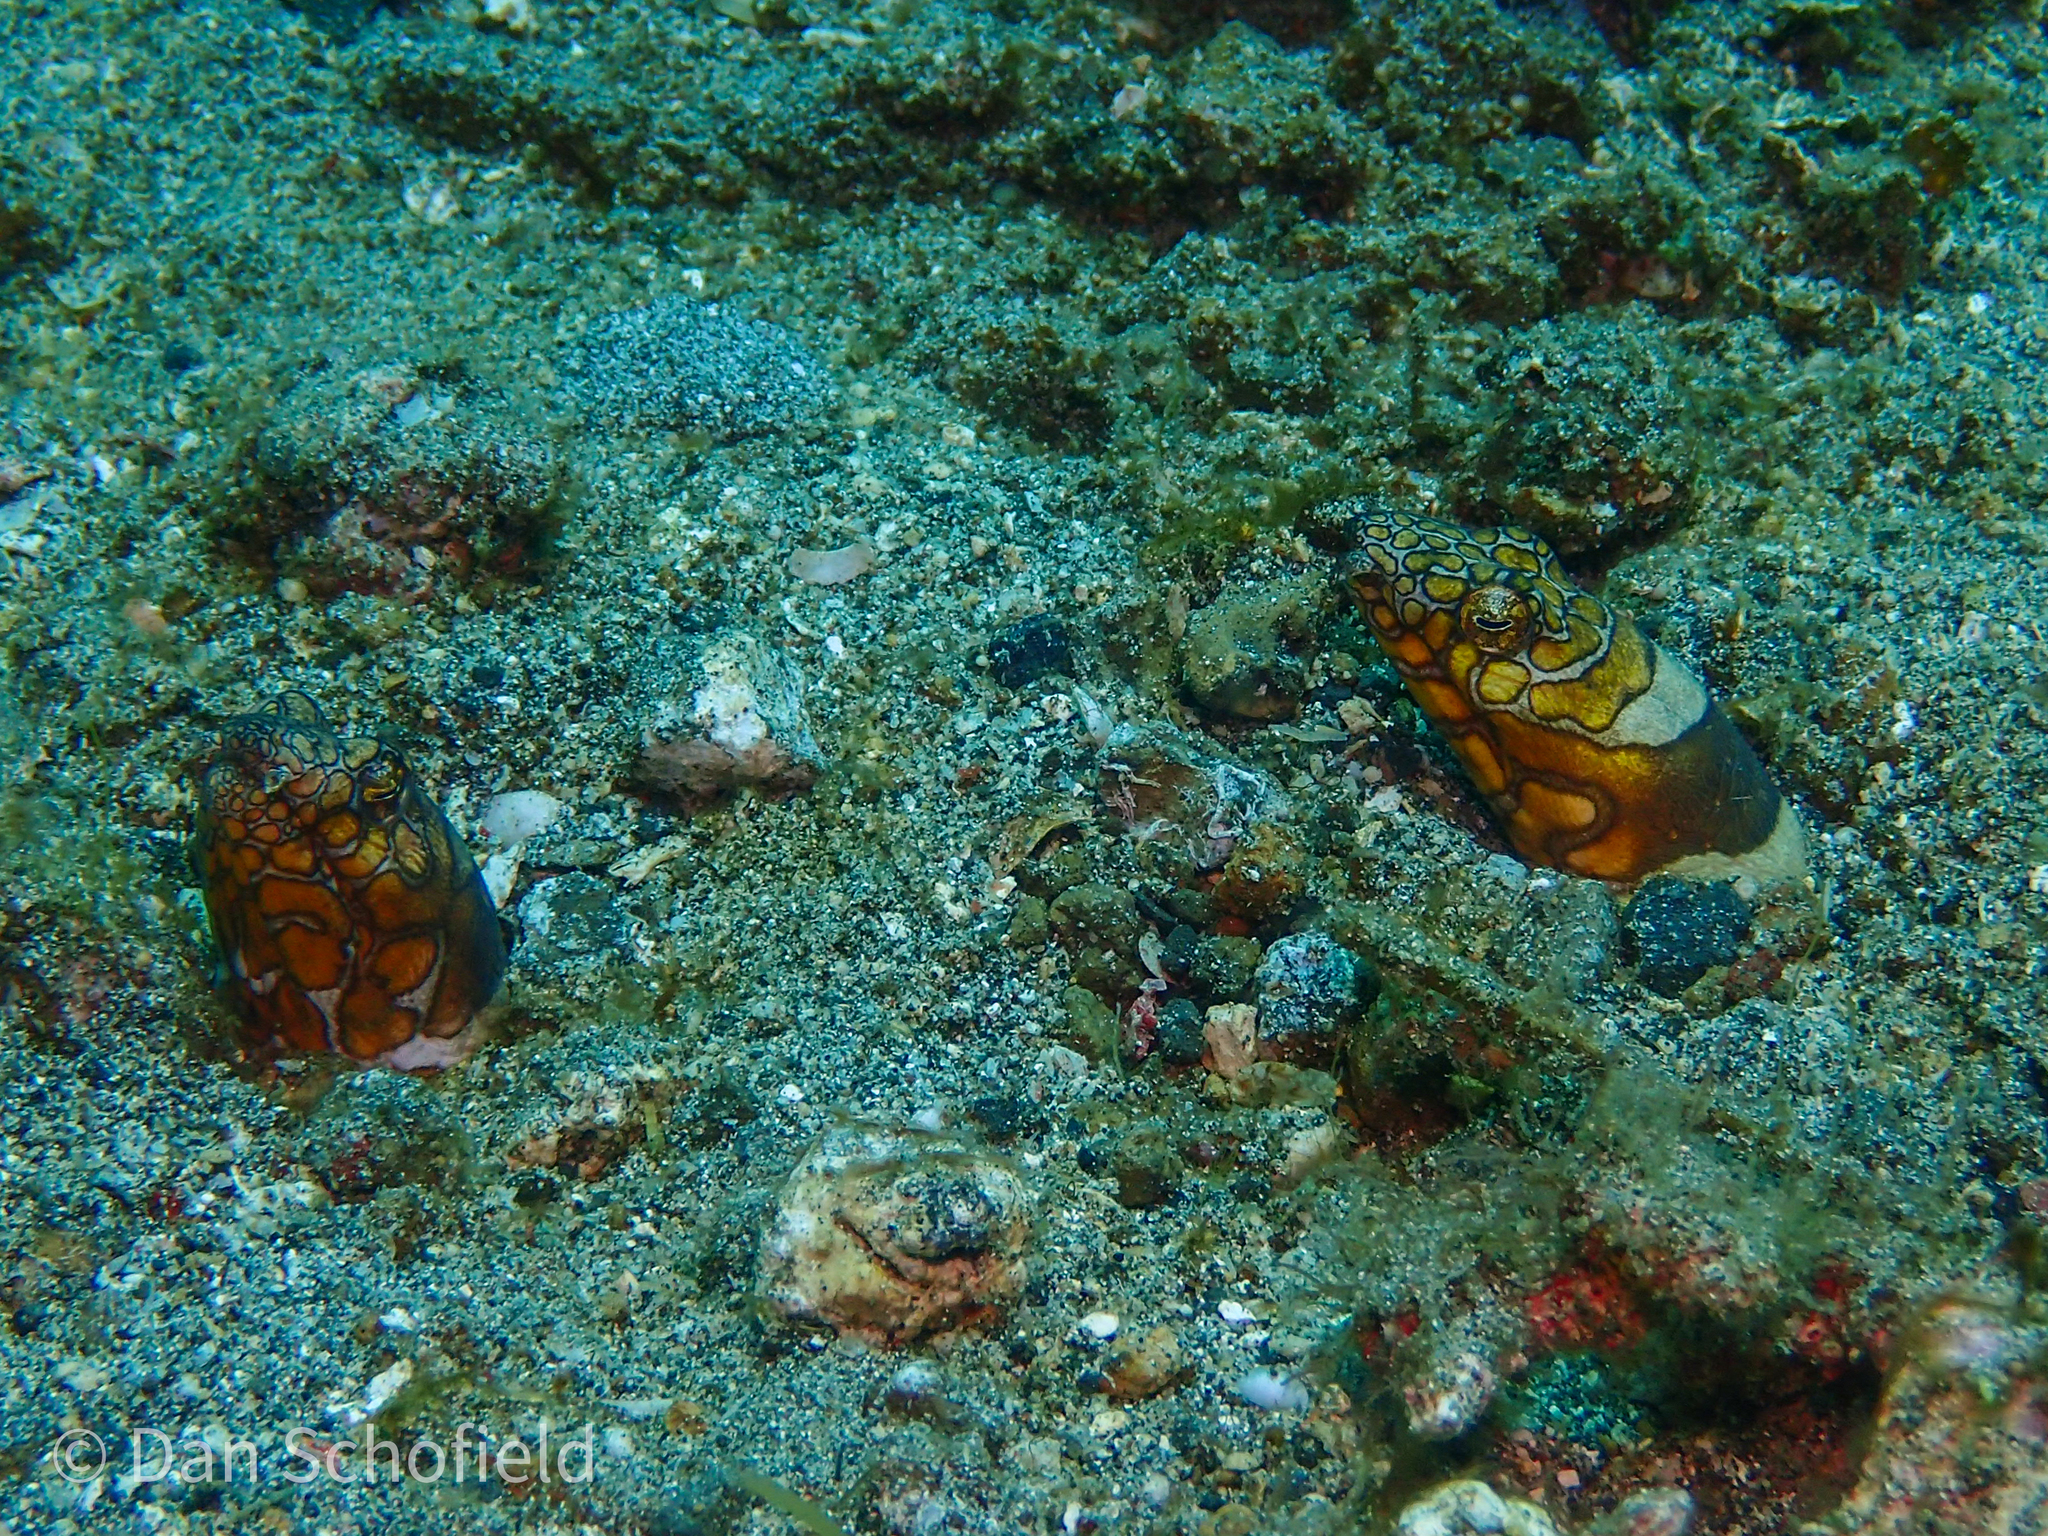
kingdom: Animalia
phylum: Chordata
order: Anguilliformes
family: Ophichthidae
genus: Ophichthus
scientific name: Ophichthus bonaparti
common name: Napoleon snake eel
